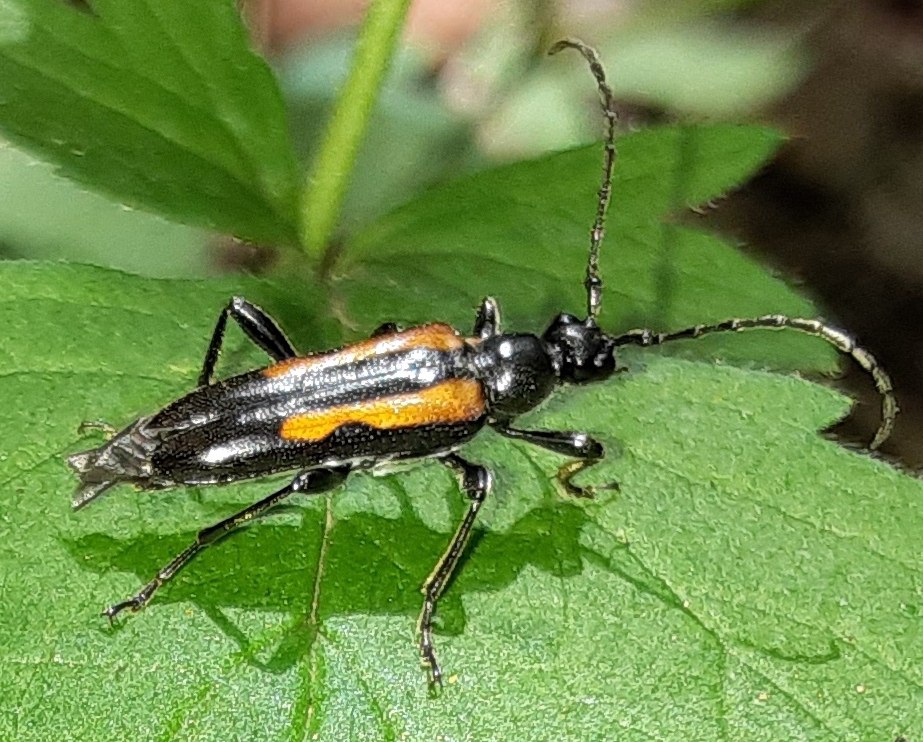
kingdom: Animalia
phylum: Arthropoda
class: Insecta
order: Coleoptera
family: Cerambycidae
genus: Strangalepta
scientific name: Strangalepta abbreviata
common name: Strangalepta flower longhorn beetle
